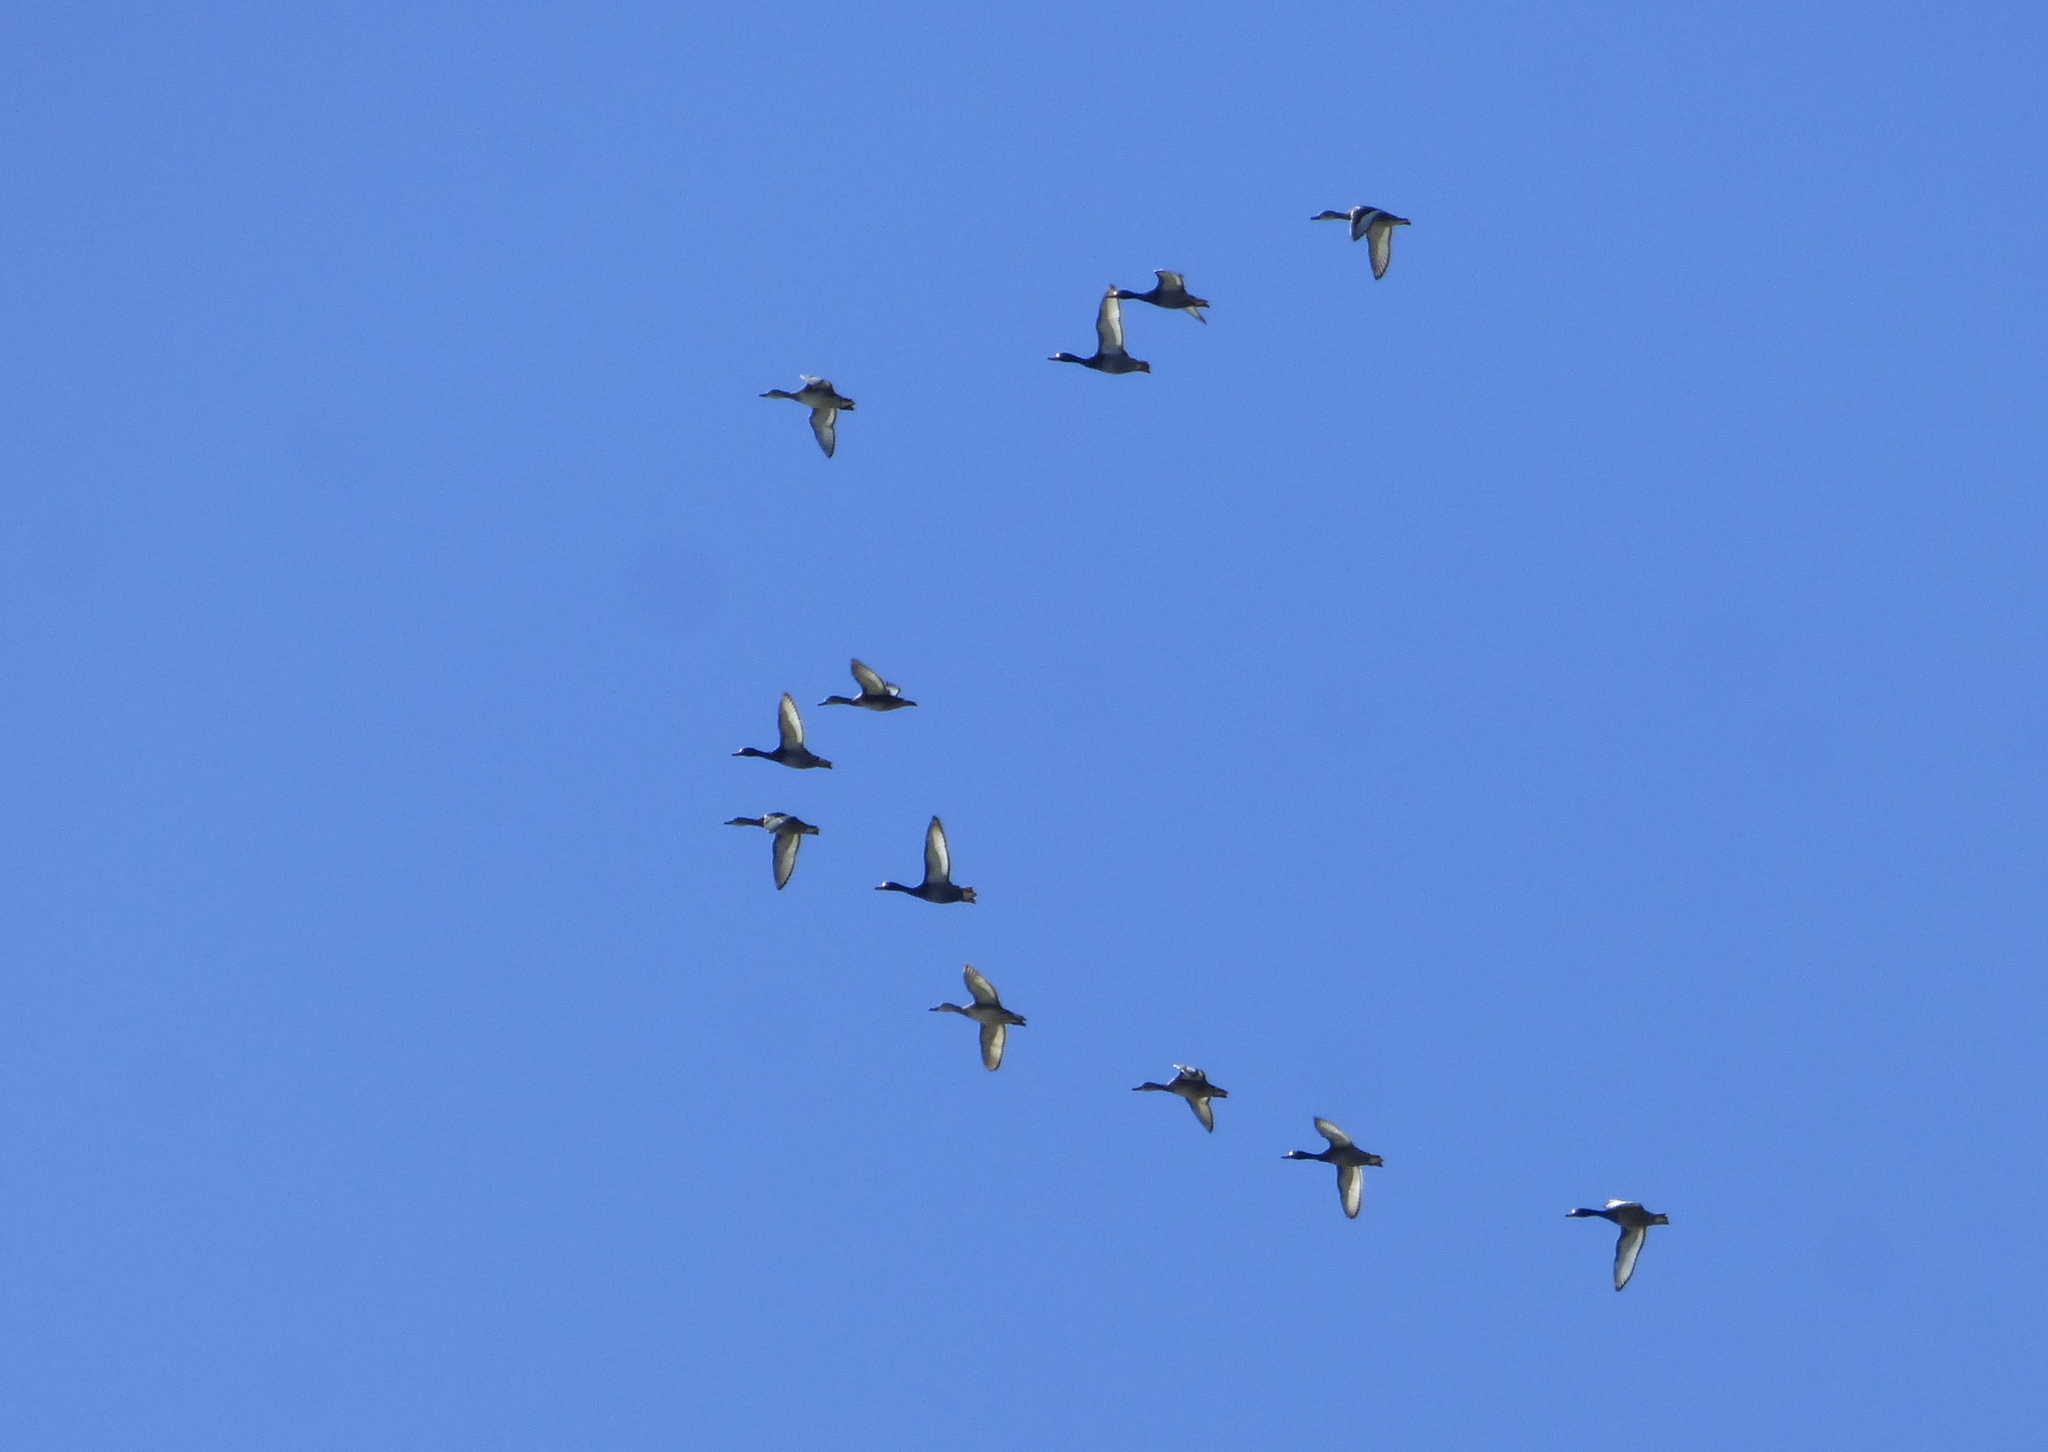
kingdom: Animalia
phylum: Chordata
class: Aves
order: Anseriformes
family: Anatidae
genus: Netta
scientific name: Netta peposaca
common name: Rosy-billed pochard
